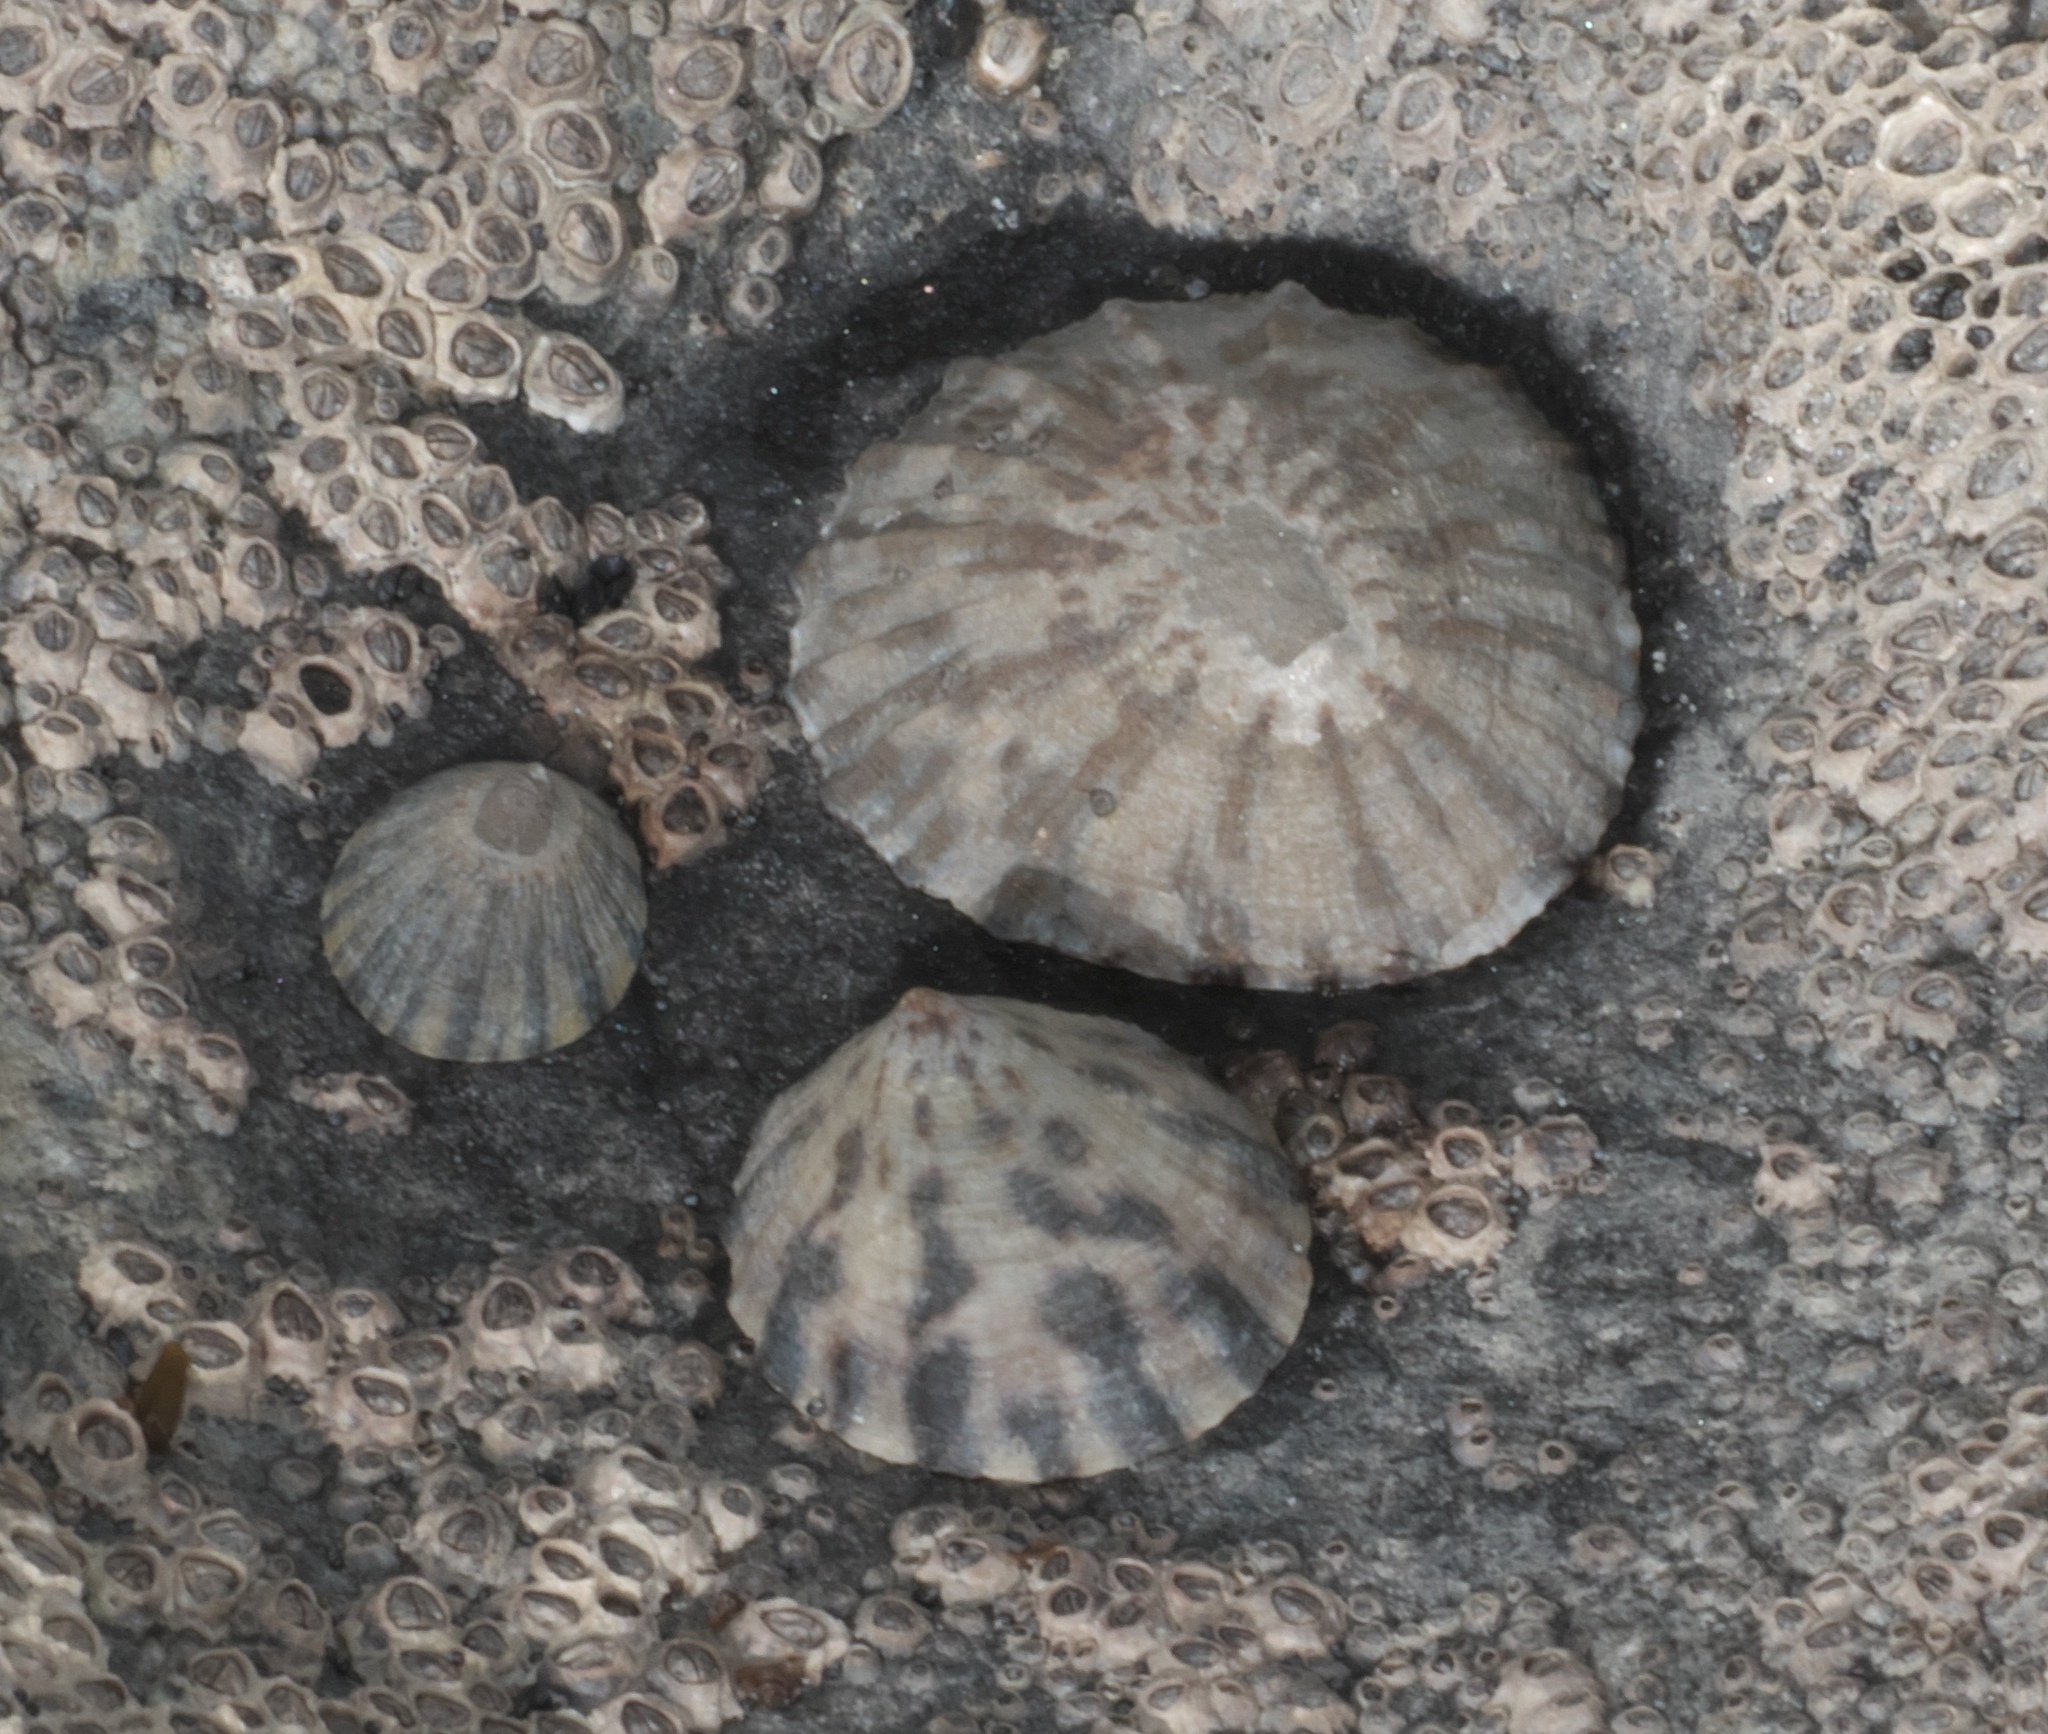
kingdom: Animalia
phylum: Mollusca
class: Gastropoda
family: Nacellidae
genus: Cellana
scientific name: Cellana radians
